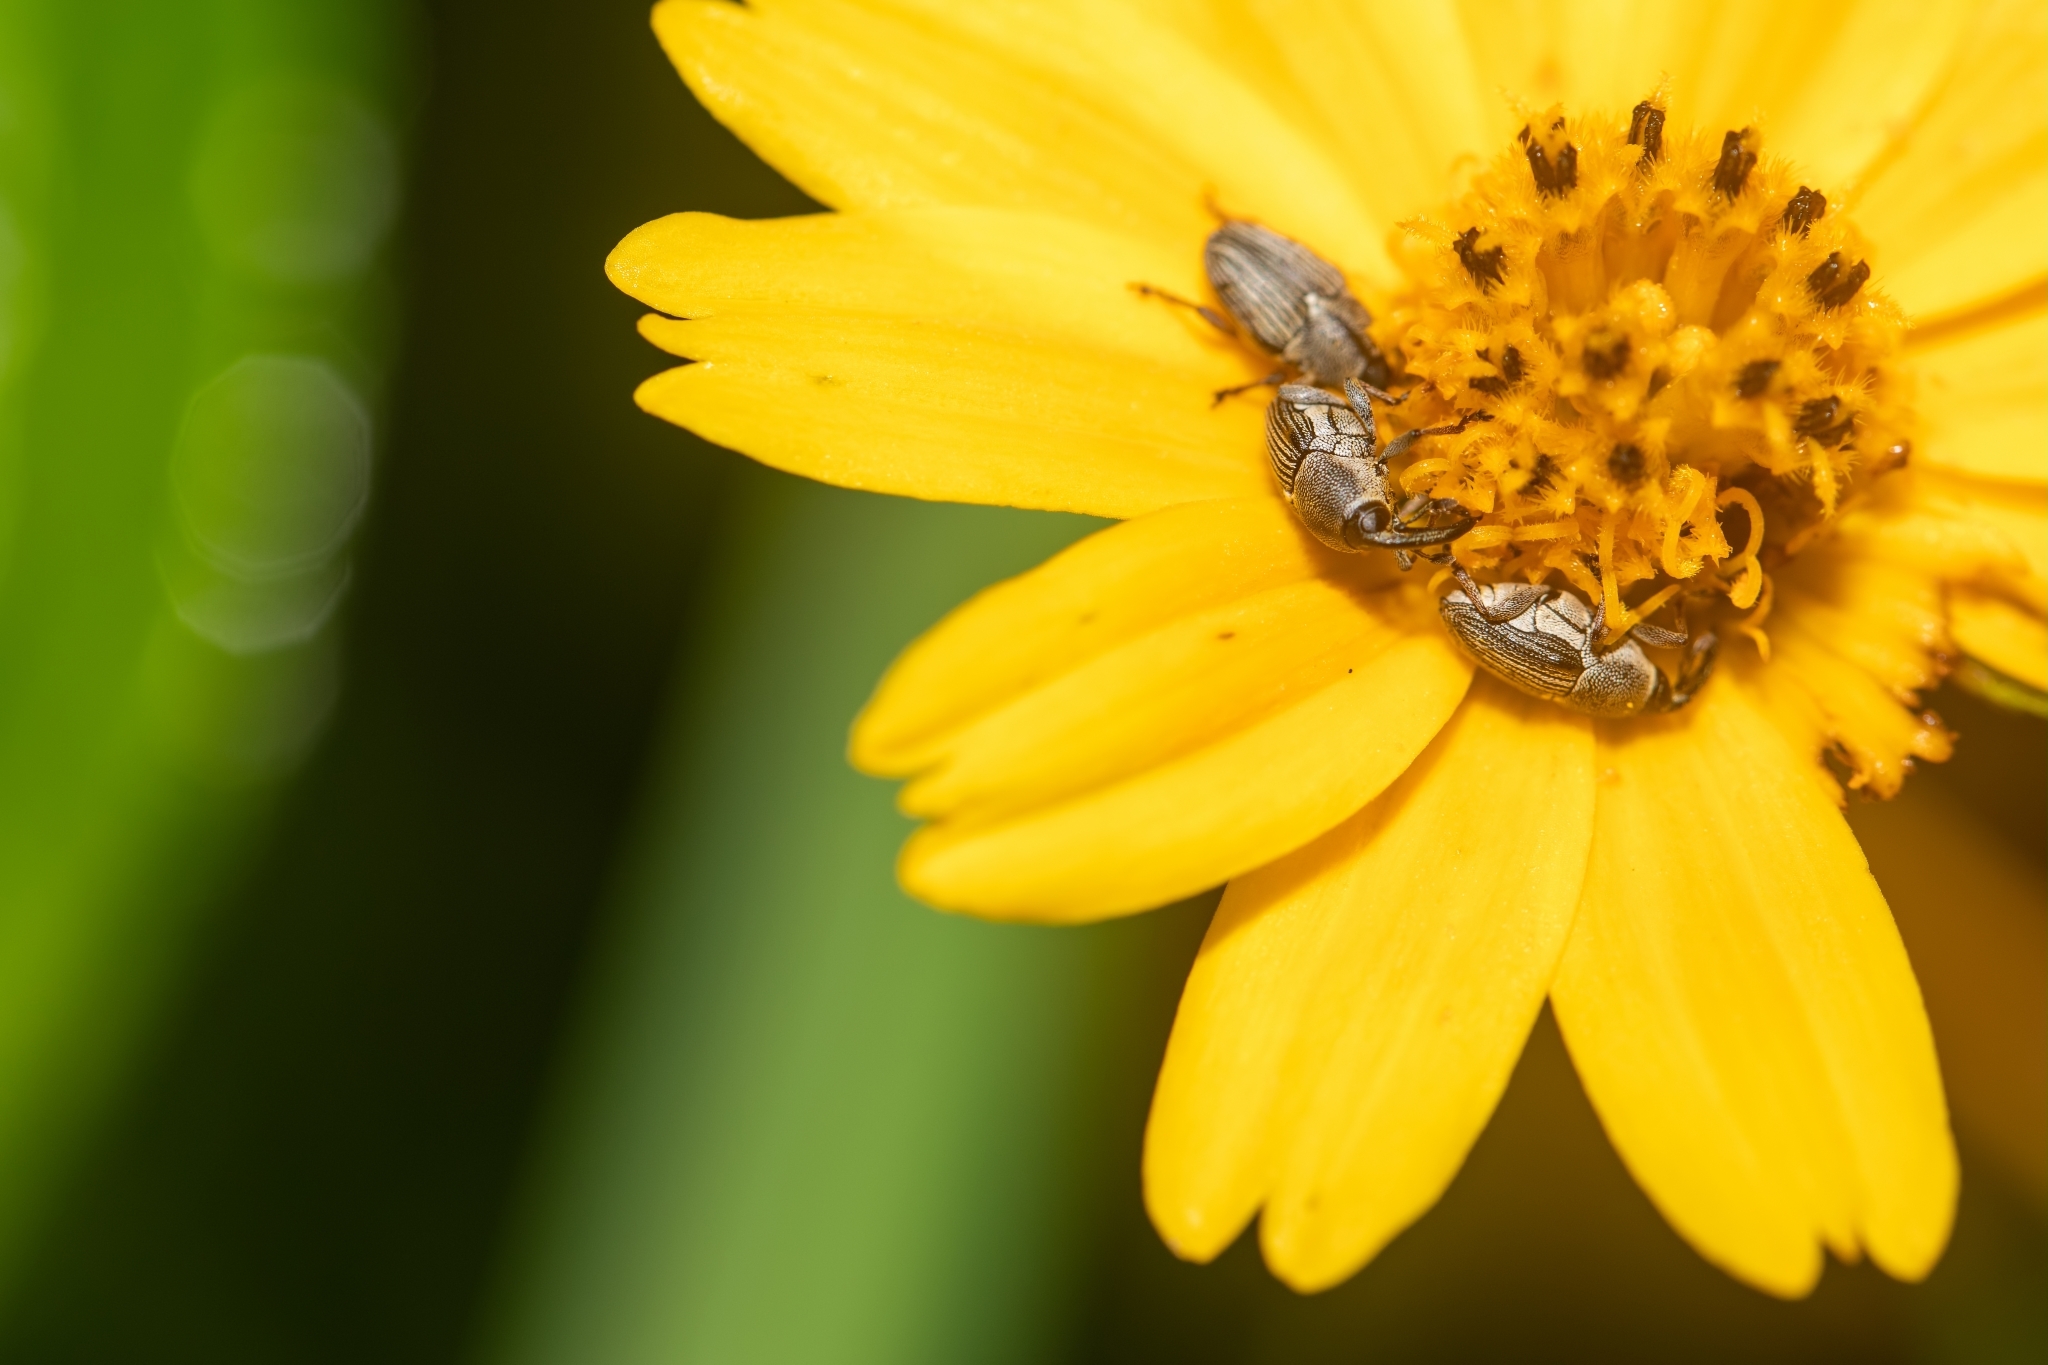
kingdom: Animalia
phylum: Arthropoda
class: Insecta
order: Coleoptera
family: Curculionidae
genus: Odontocorynus
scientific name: Odontocorynus larvatus
